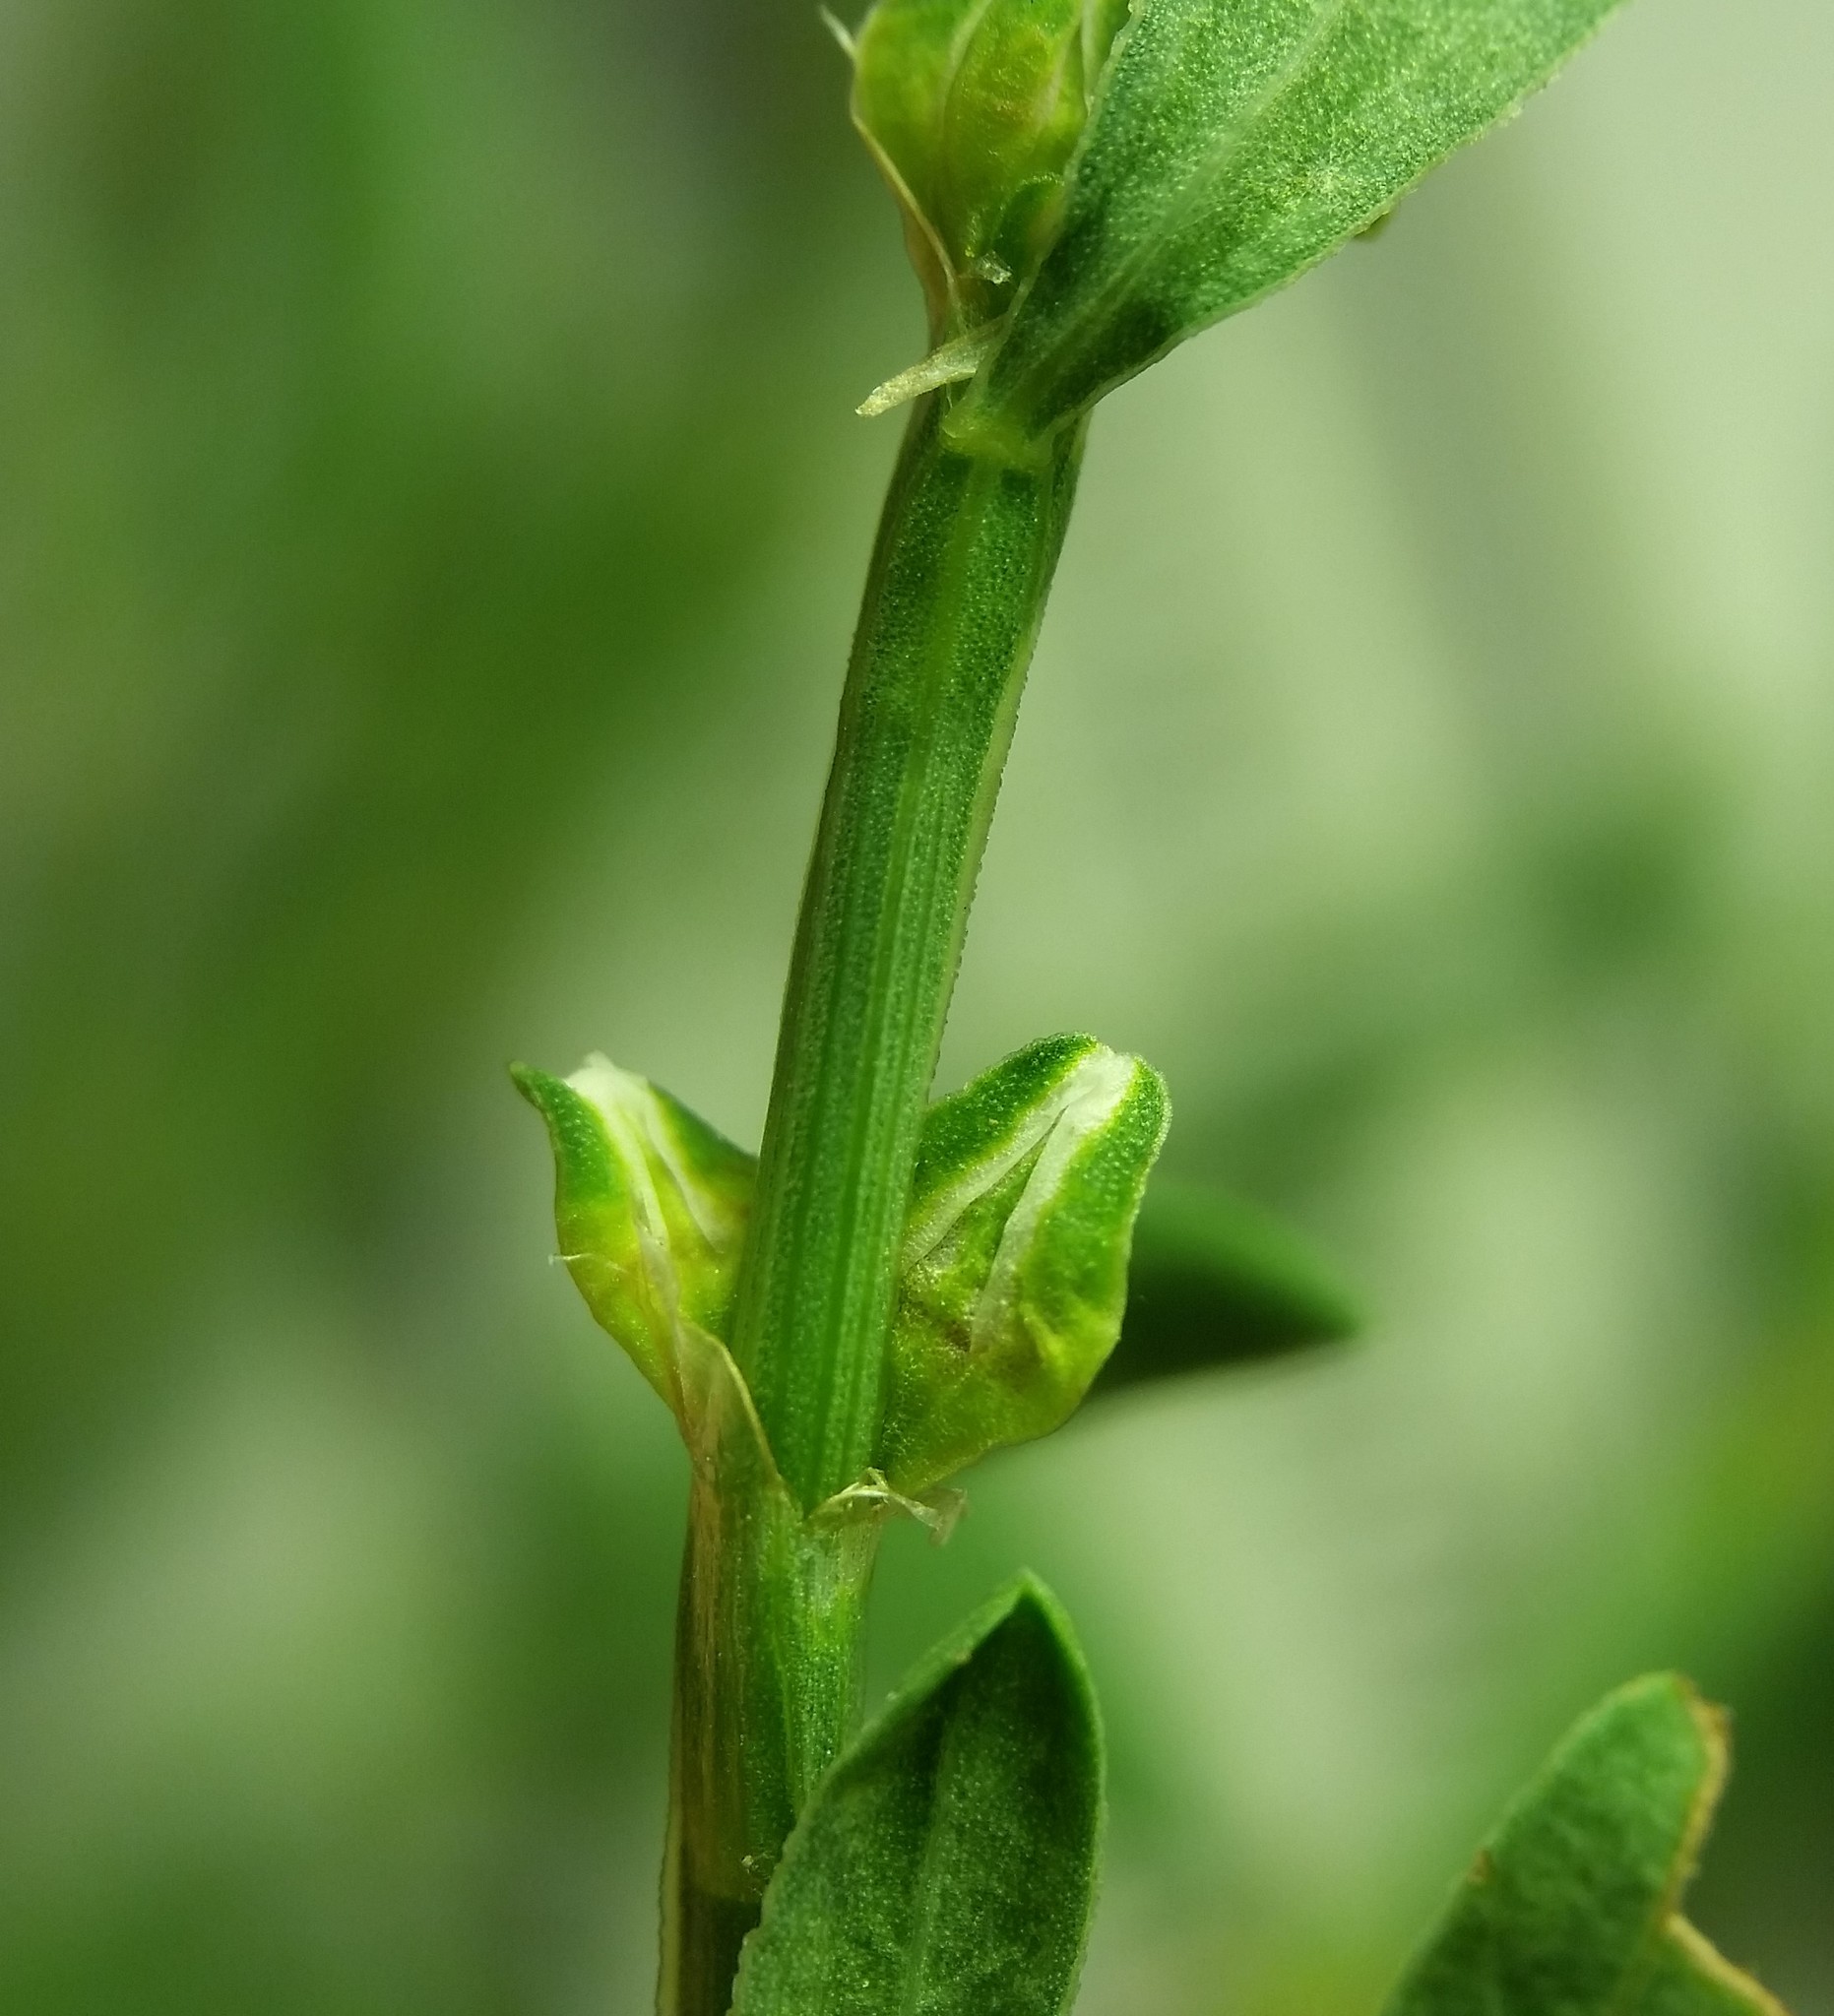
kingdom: Plantae
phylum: Tracheophyta
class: Magnoliopsida
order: Caryophyllales
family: Polygonaceae
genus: Polygonum
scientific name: Polygonum ramosissimum
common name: Bushy knotweed
